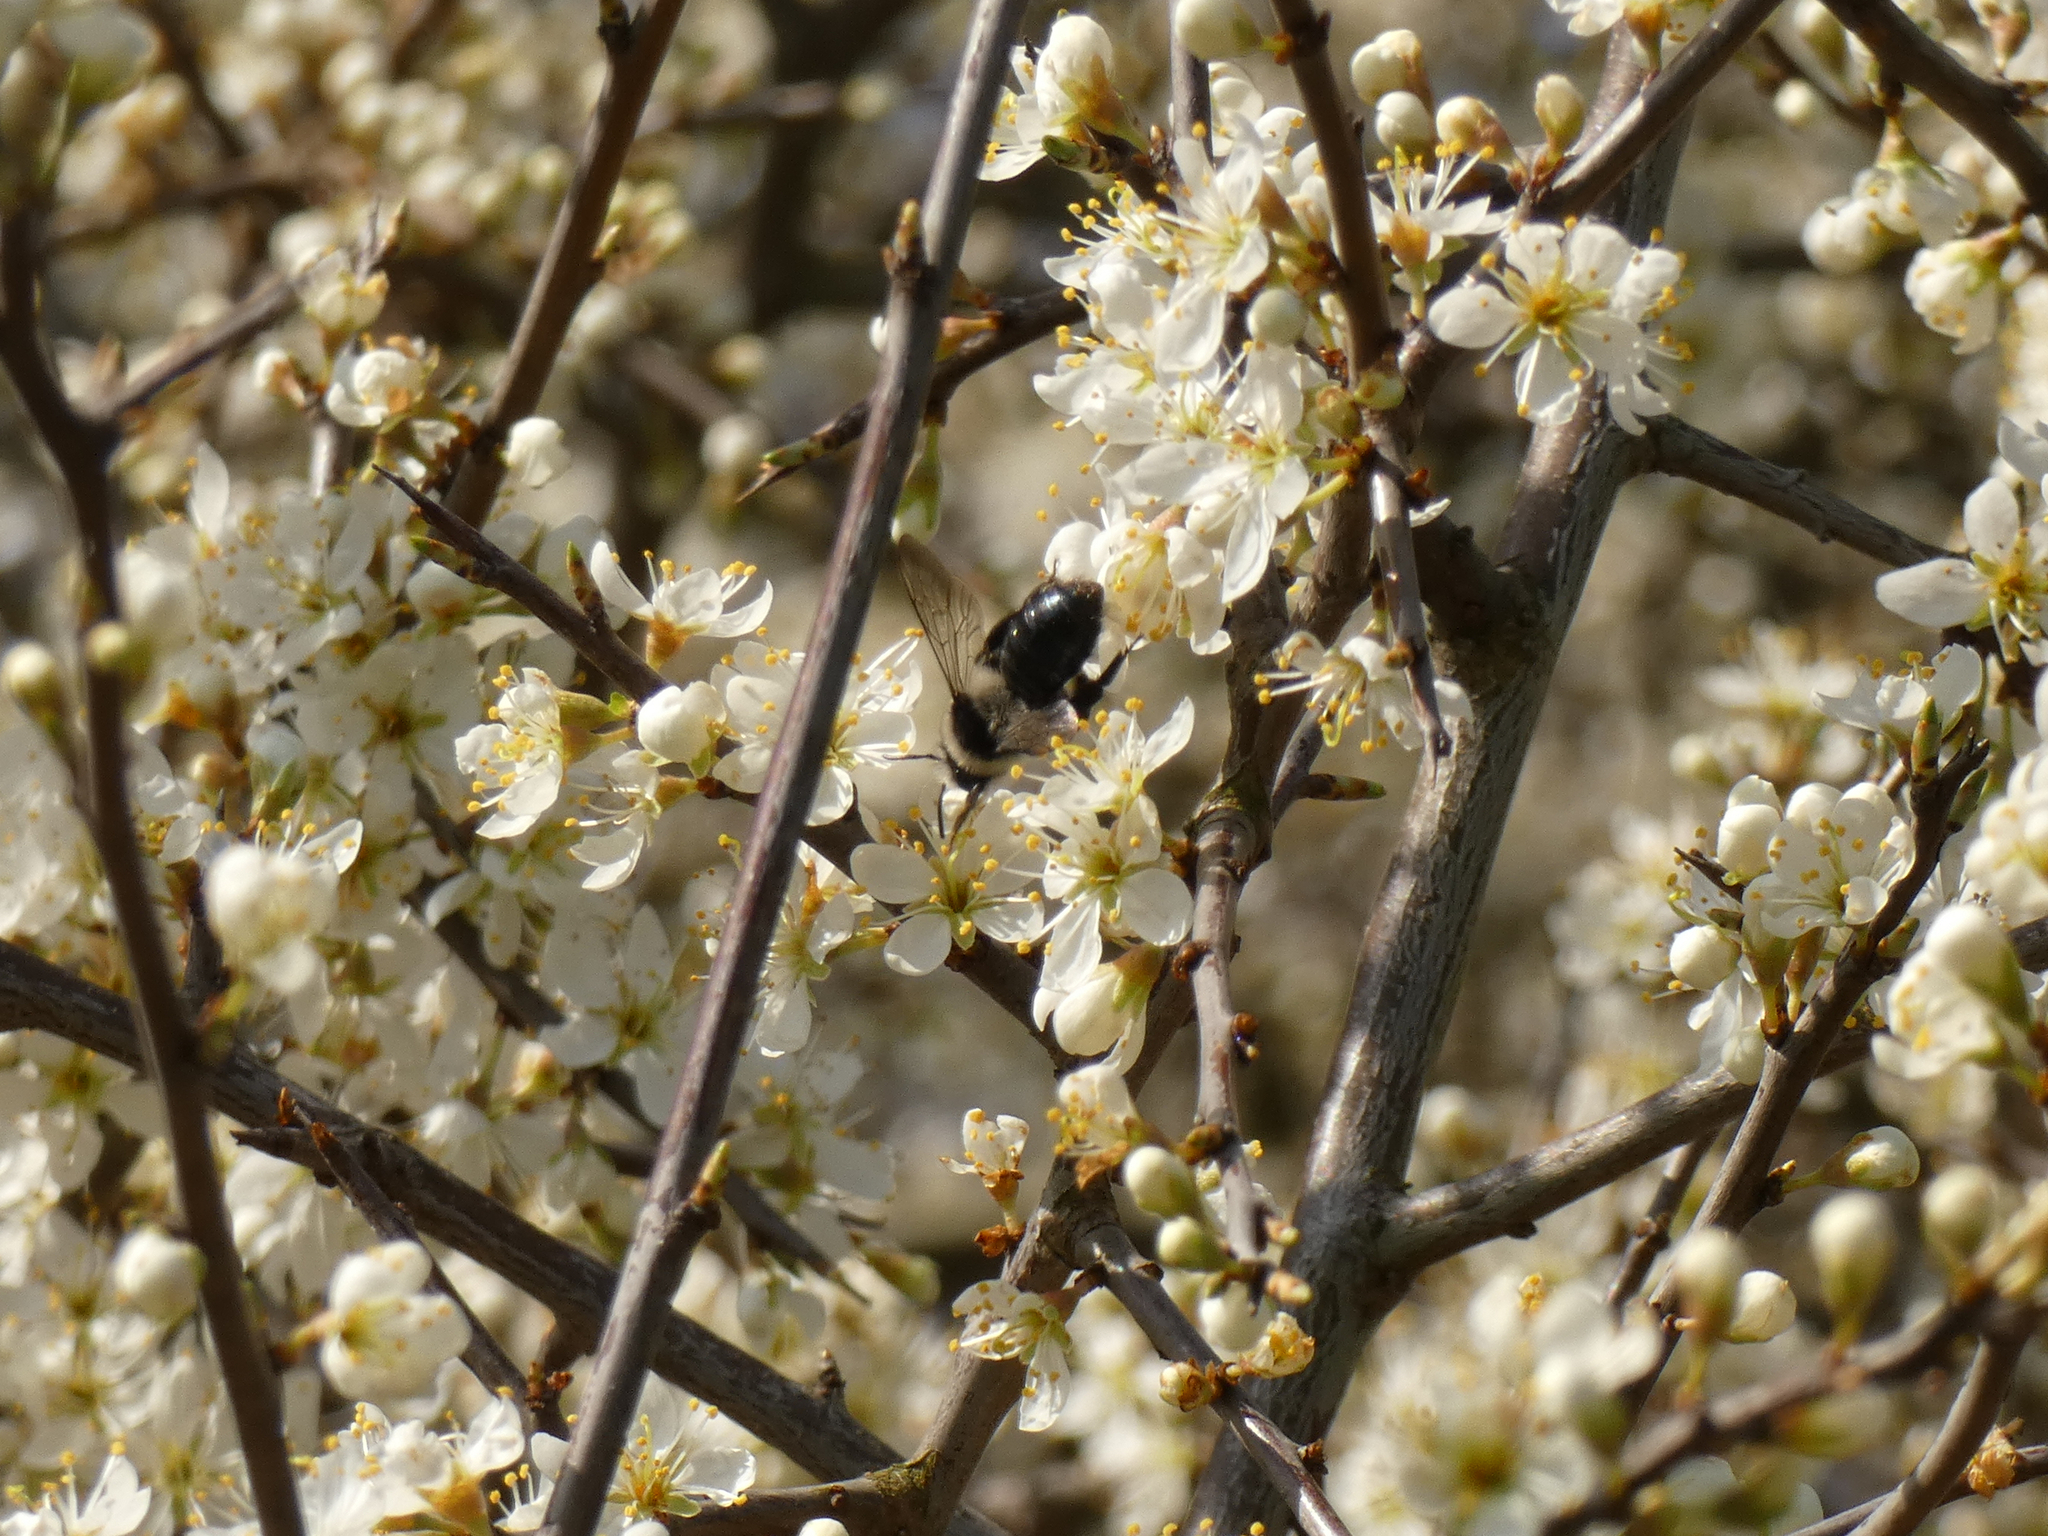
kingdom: Animalia
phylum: Arthropoda
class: Insecta
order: Hymenoptera
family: Andrenidae
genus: Andrena
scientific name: Andrena cineraria
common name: Ashy mining bee
